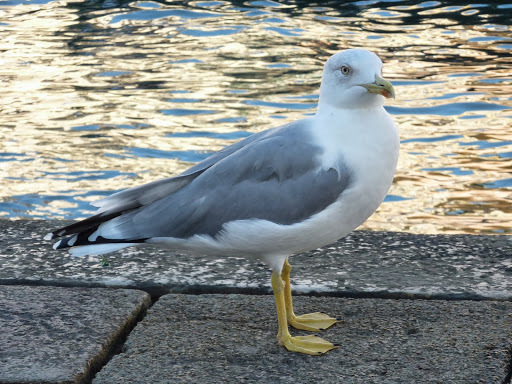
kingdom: Animalia
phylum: Chordata
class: Aves
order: Charadriiformes
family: Laridae
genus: Larus
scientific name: Larus michahellis
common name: Yellow-legged gull
